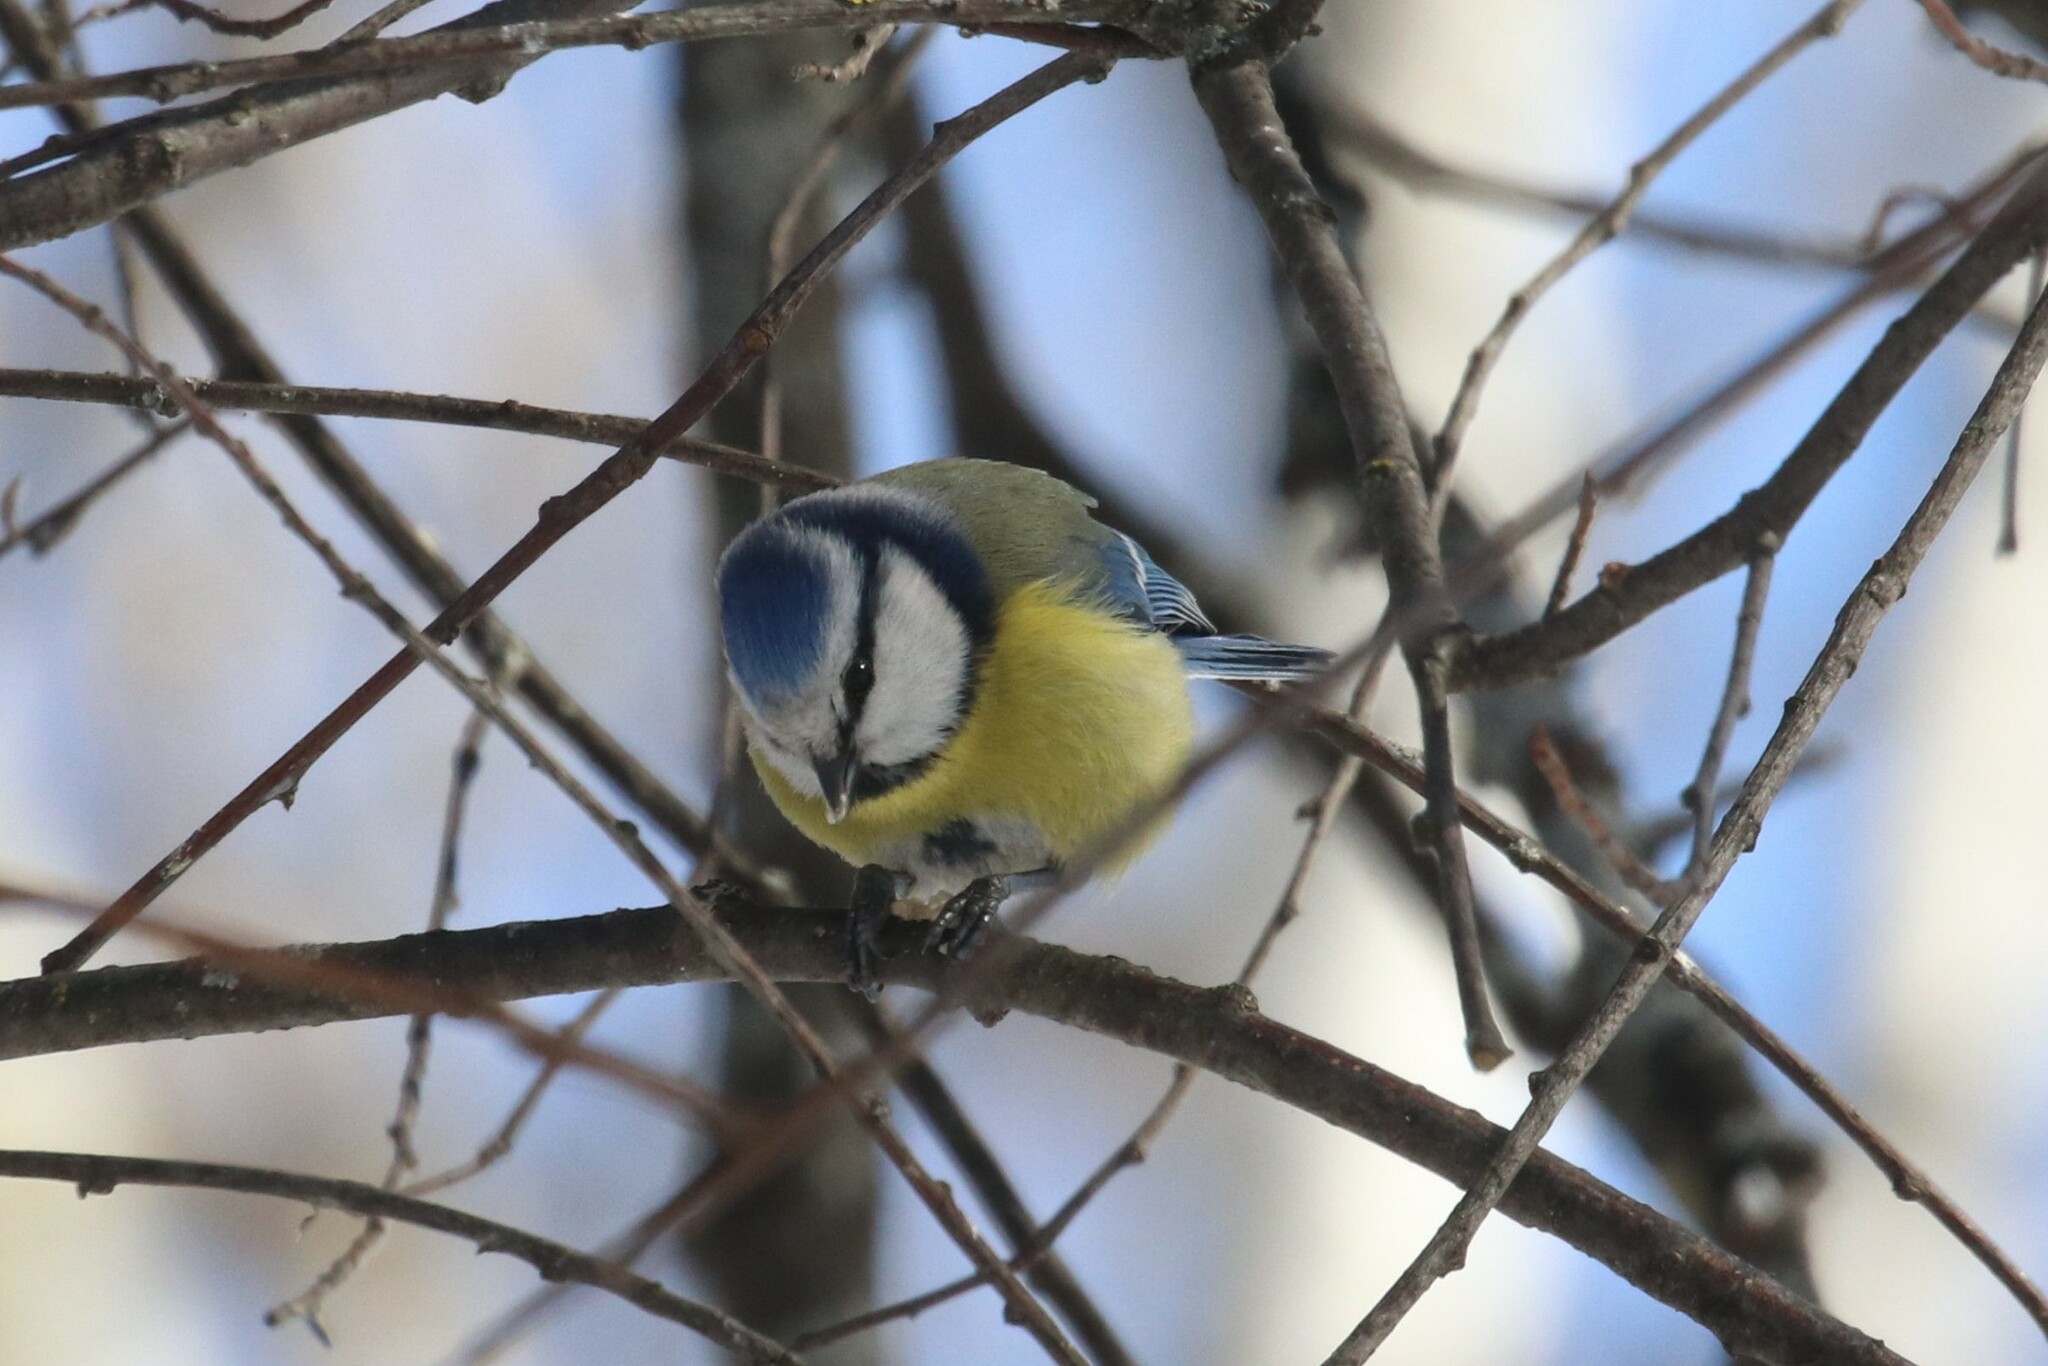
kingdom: Animalia
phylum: Chordata
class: Aves
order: Passeriformes
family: Paridae
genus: Cyanistes
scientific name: Cyanistes caeruleus
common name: Eurasian blue tit
